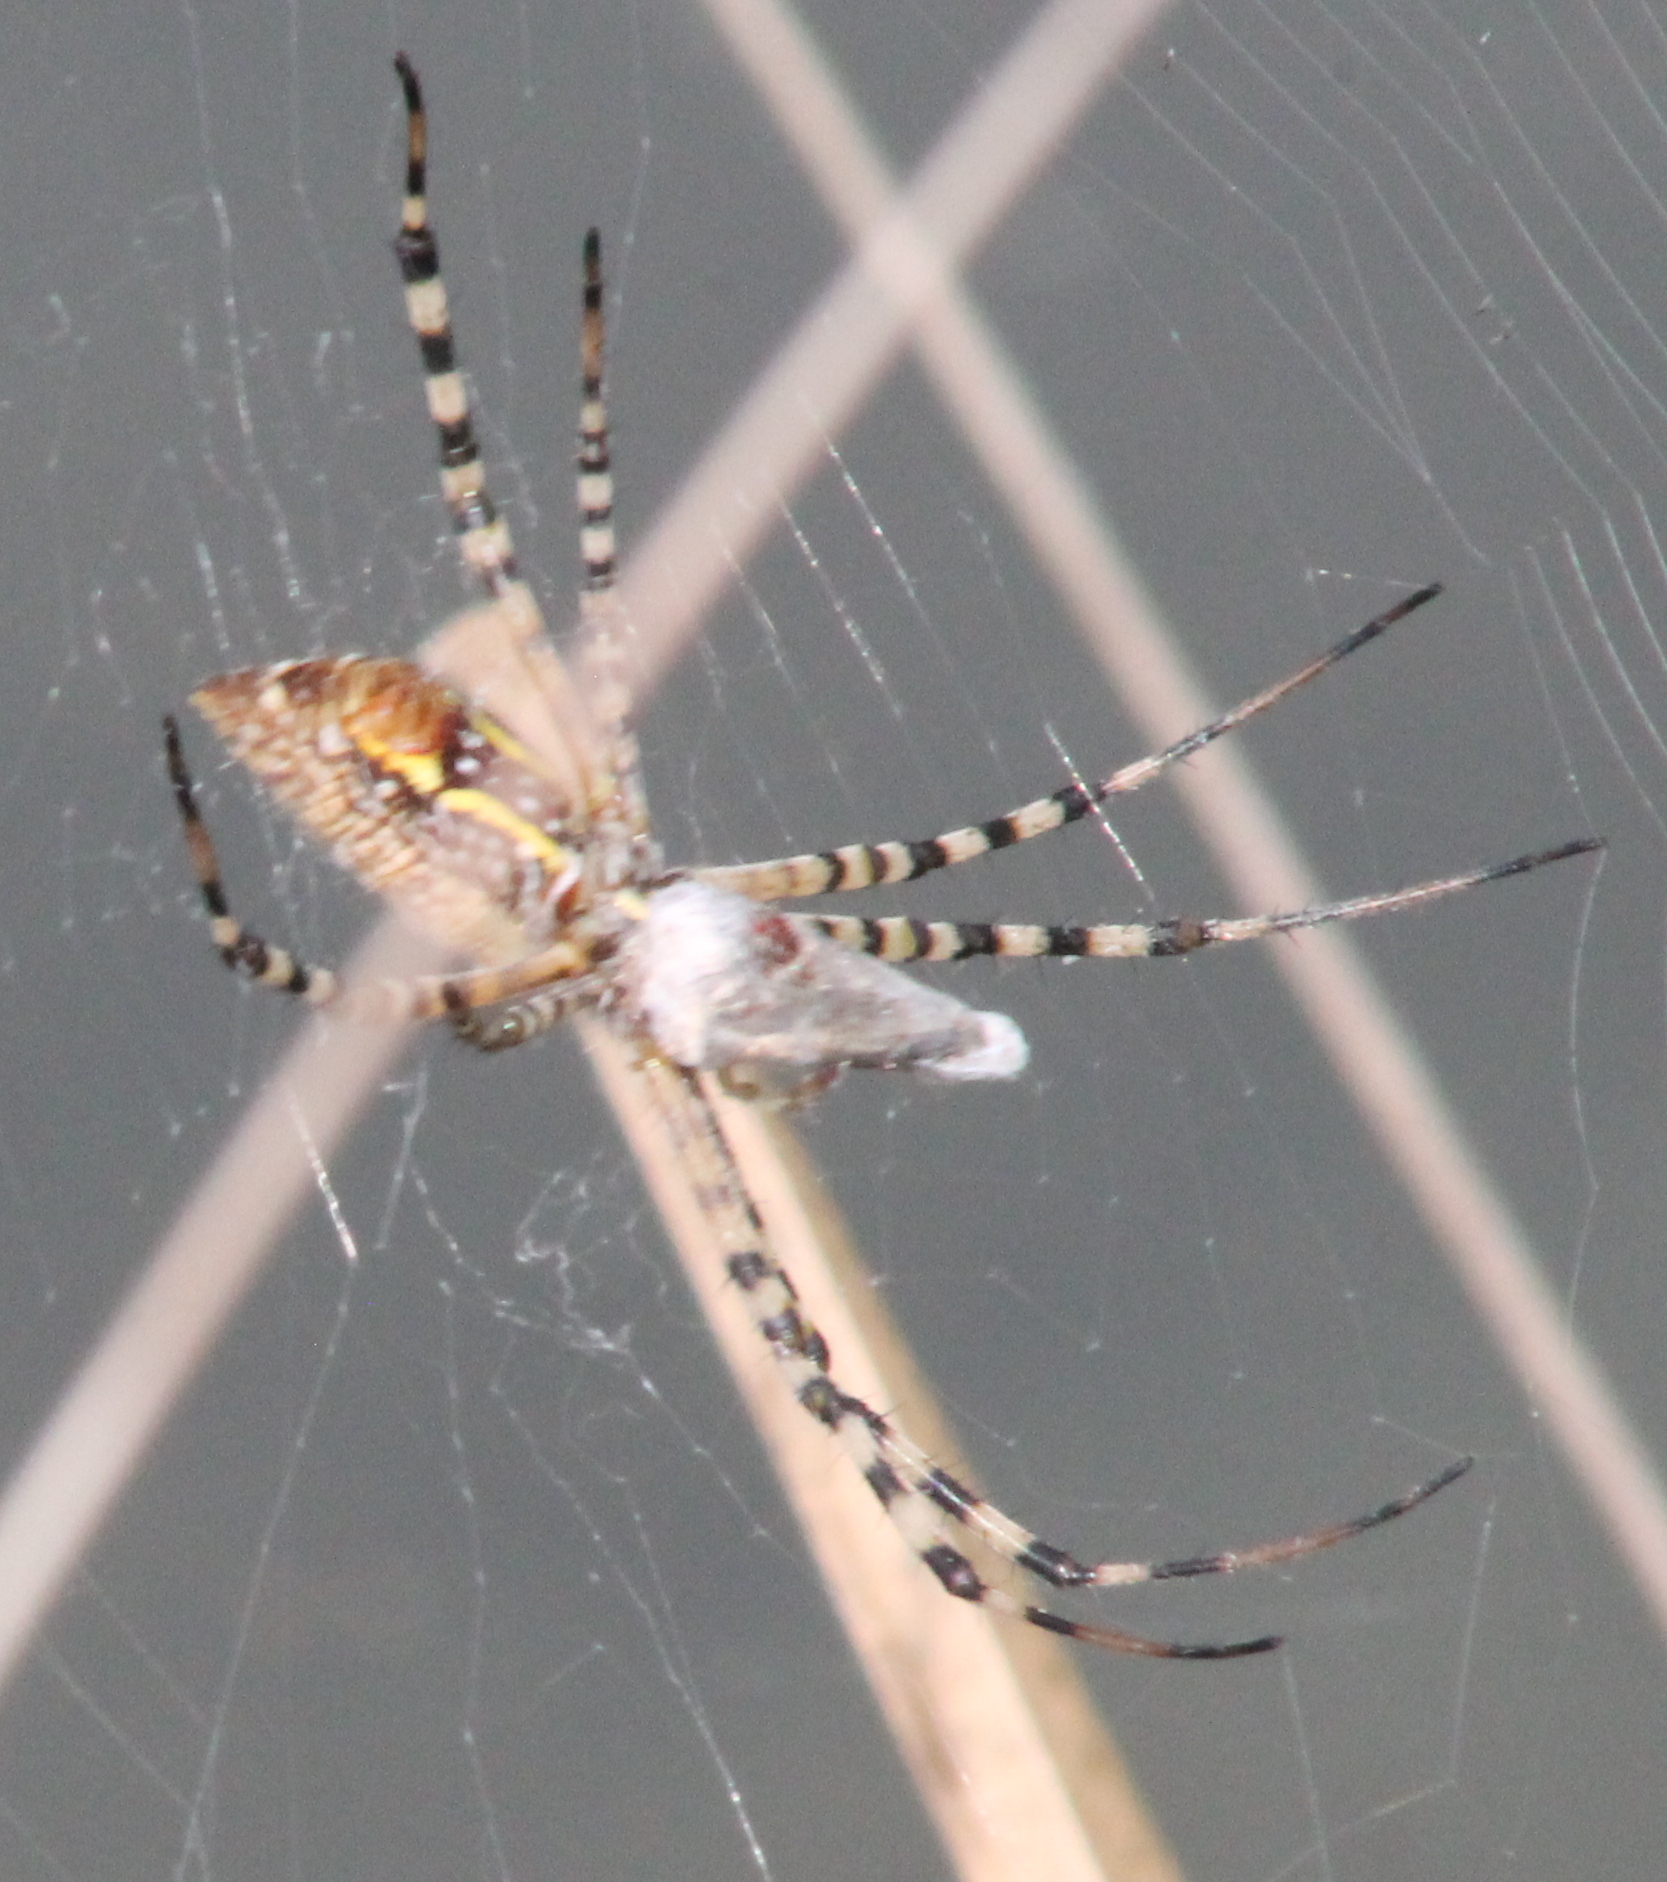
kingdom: Animalia
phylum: Arthropoda
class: Arachnida
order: Araneae
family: Araneidae
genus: Argiope
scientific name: Argiope trifasciata
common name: Banded garden spider
